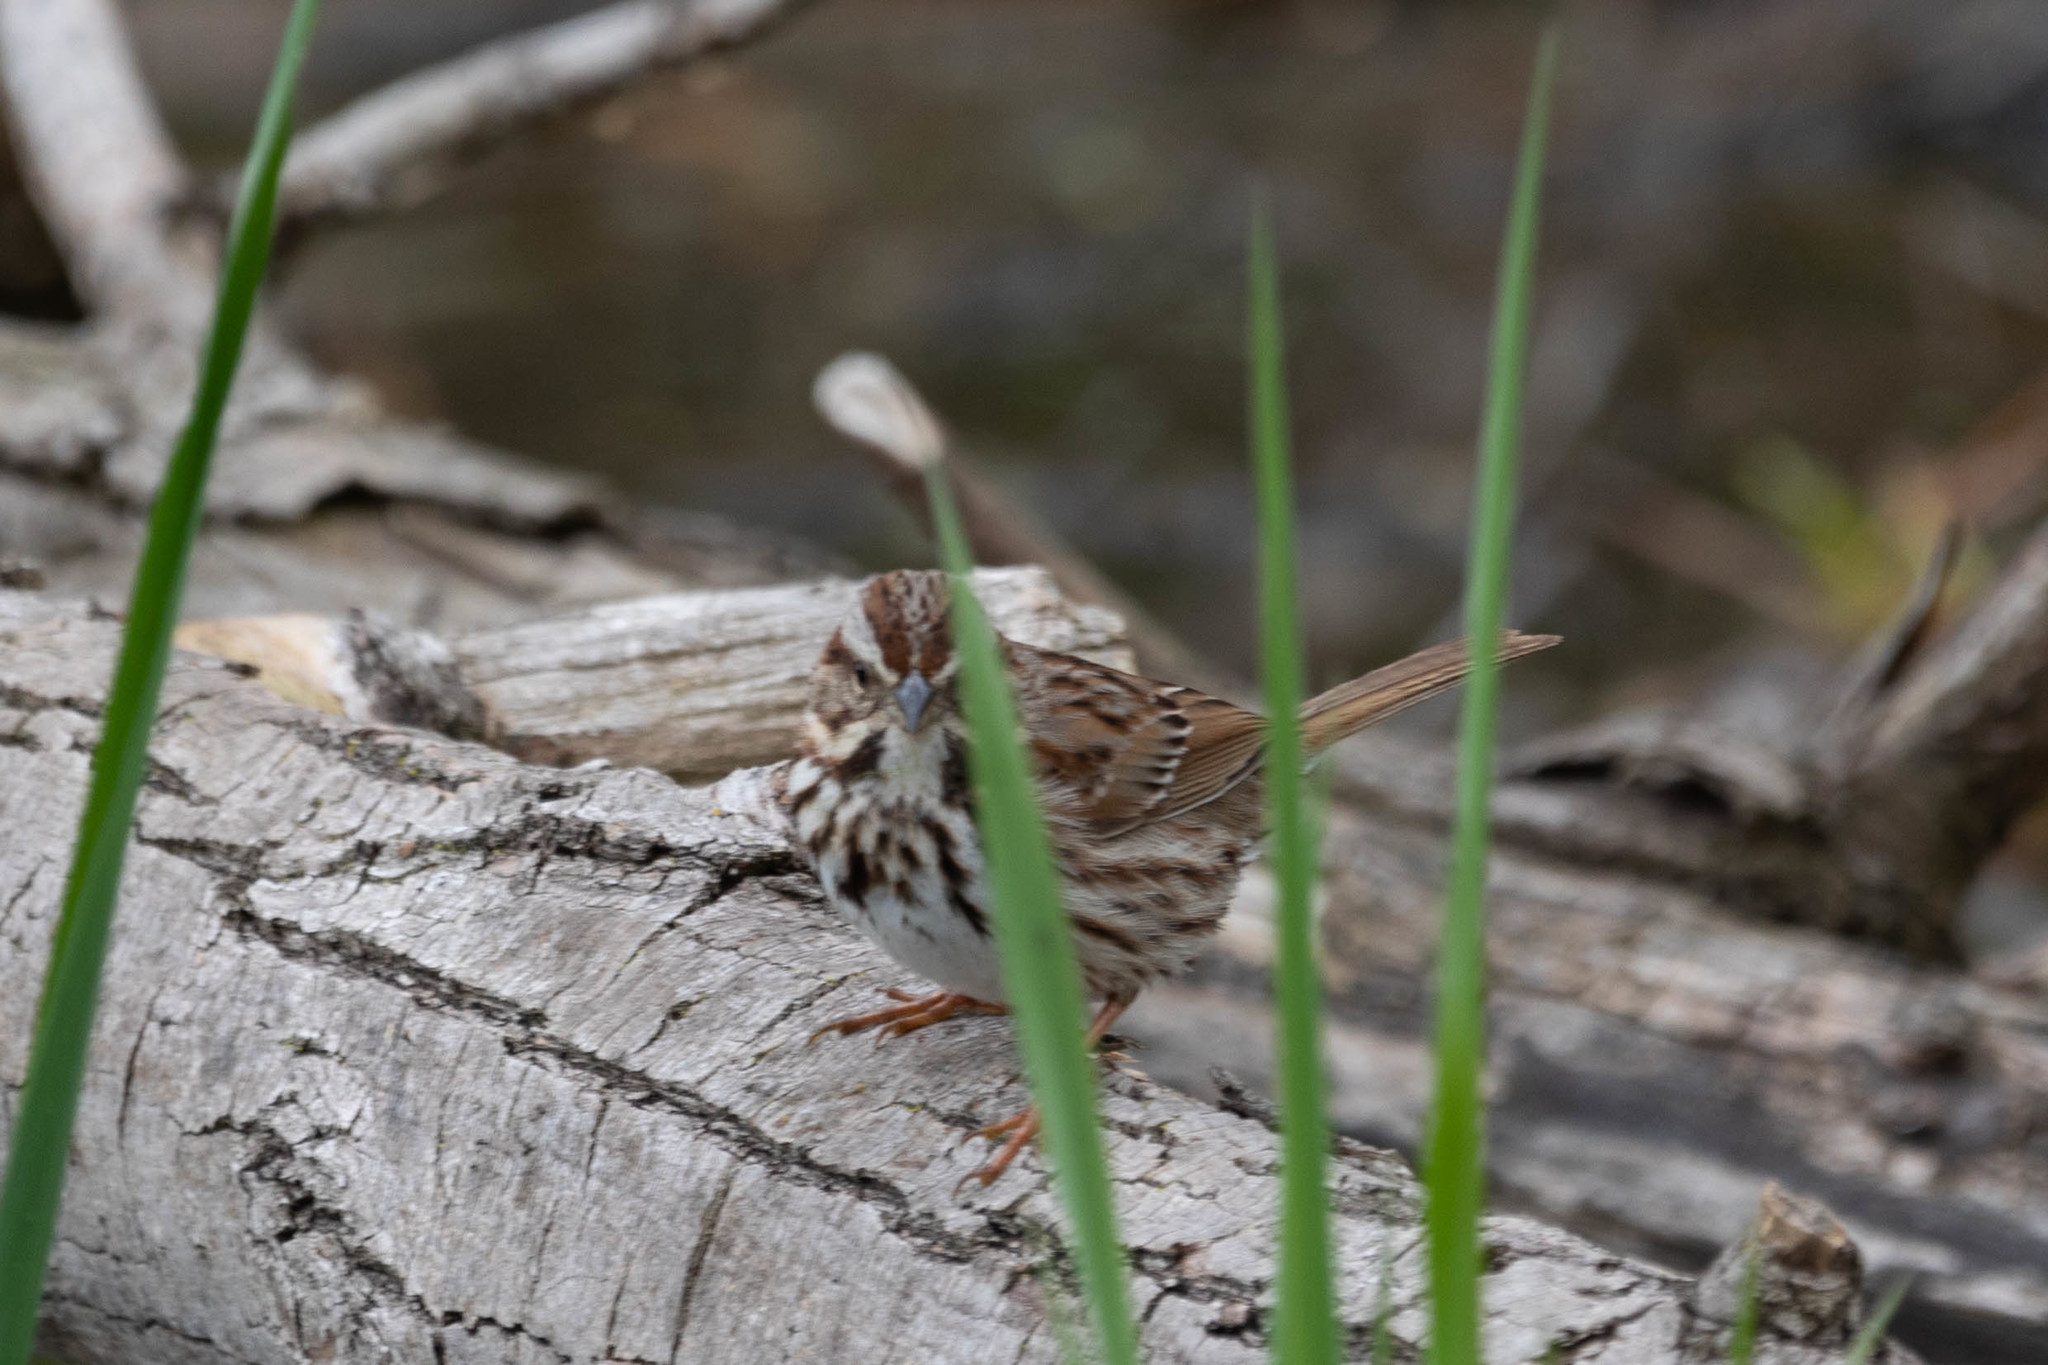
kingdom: Animalia
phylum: Chordata
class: Aves
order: Passeriformes
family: Passerellidae
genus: Melospiza
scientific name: Melospiza melodia
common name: Song sparrow
